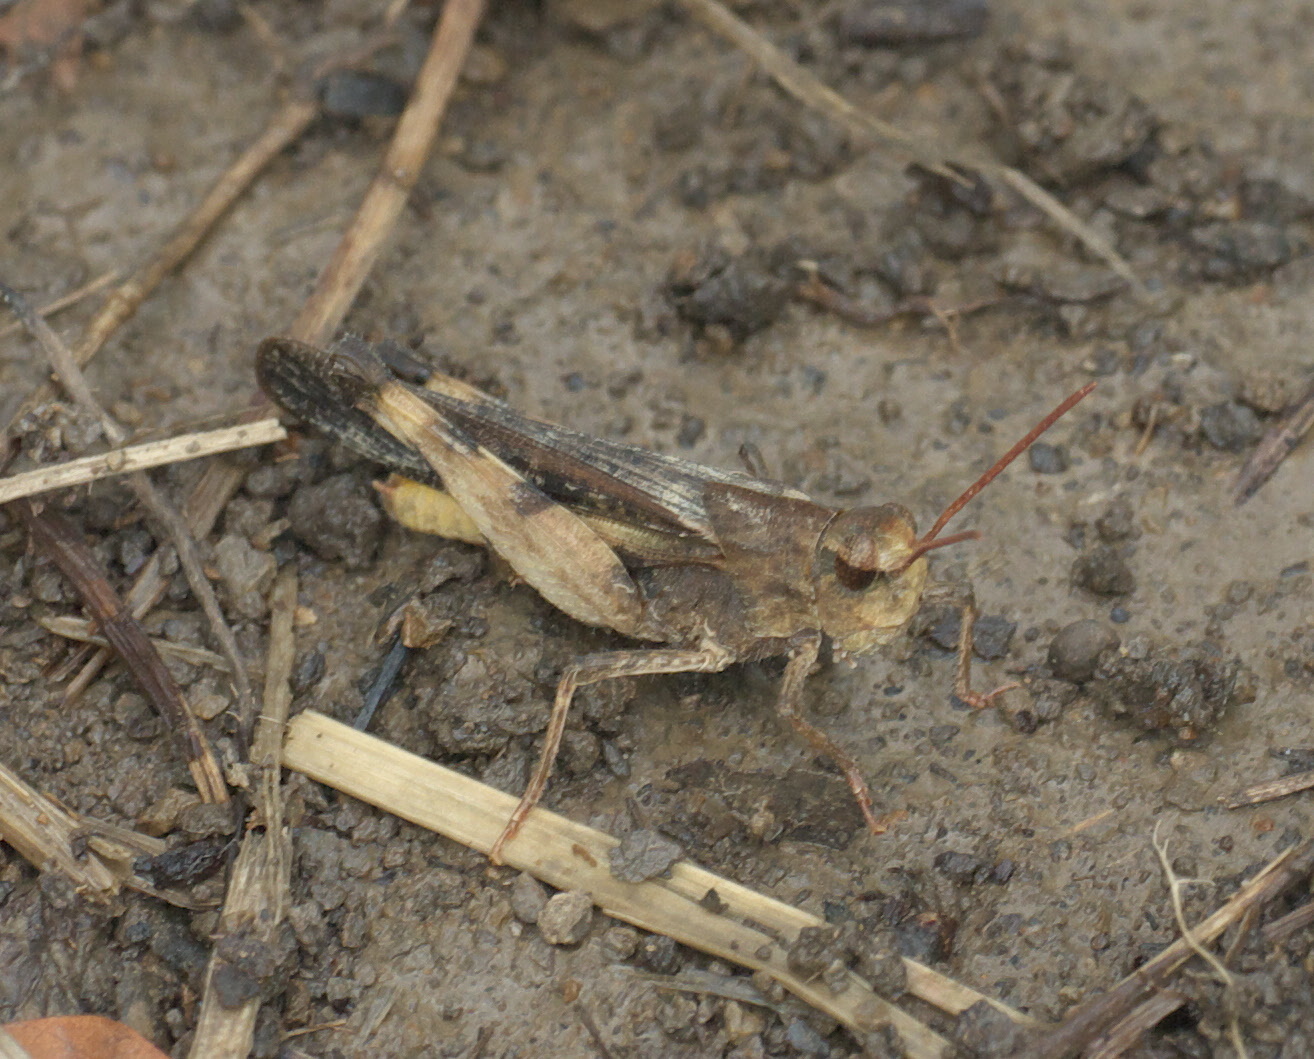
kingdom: Animalia
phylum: Arthropoda
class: Insecta
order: Orthoptera
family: Acrididae
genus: Chortophaga
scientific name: Chortophaga viridifasciata
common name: Green-striped grasshopper
